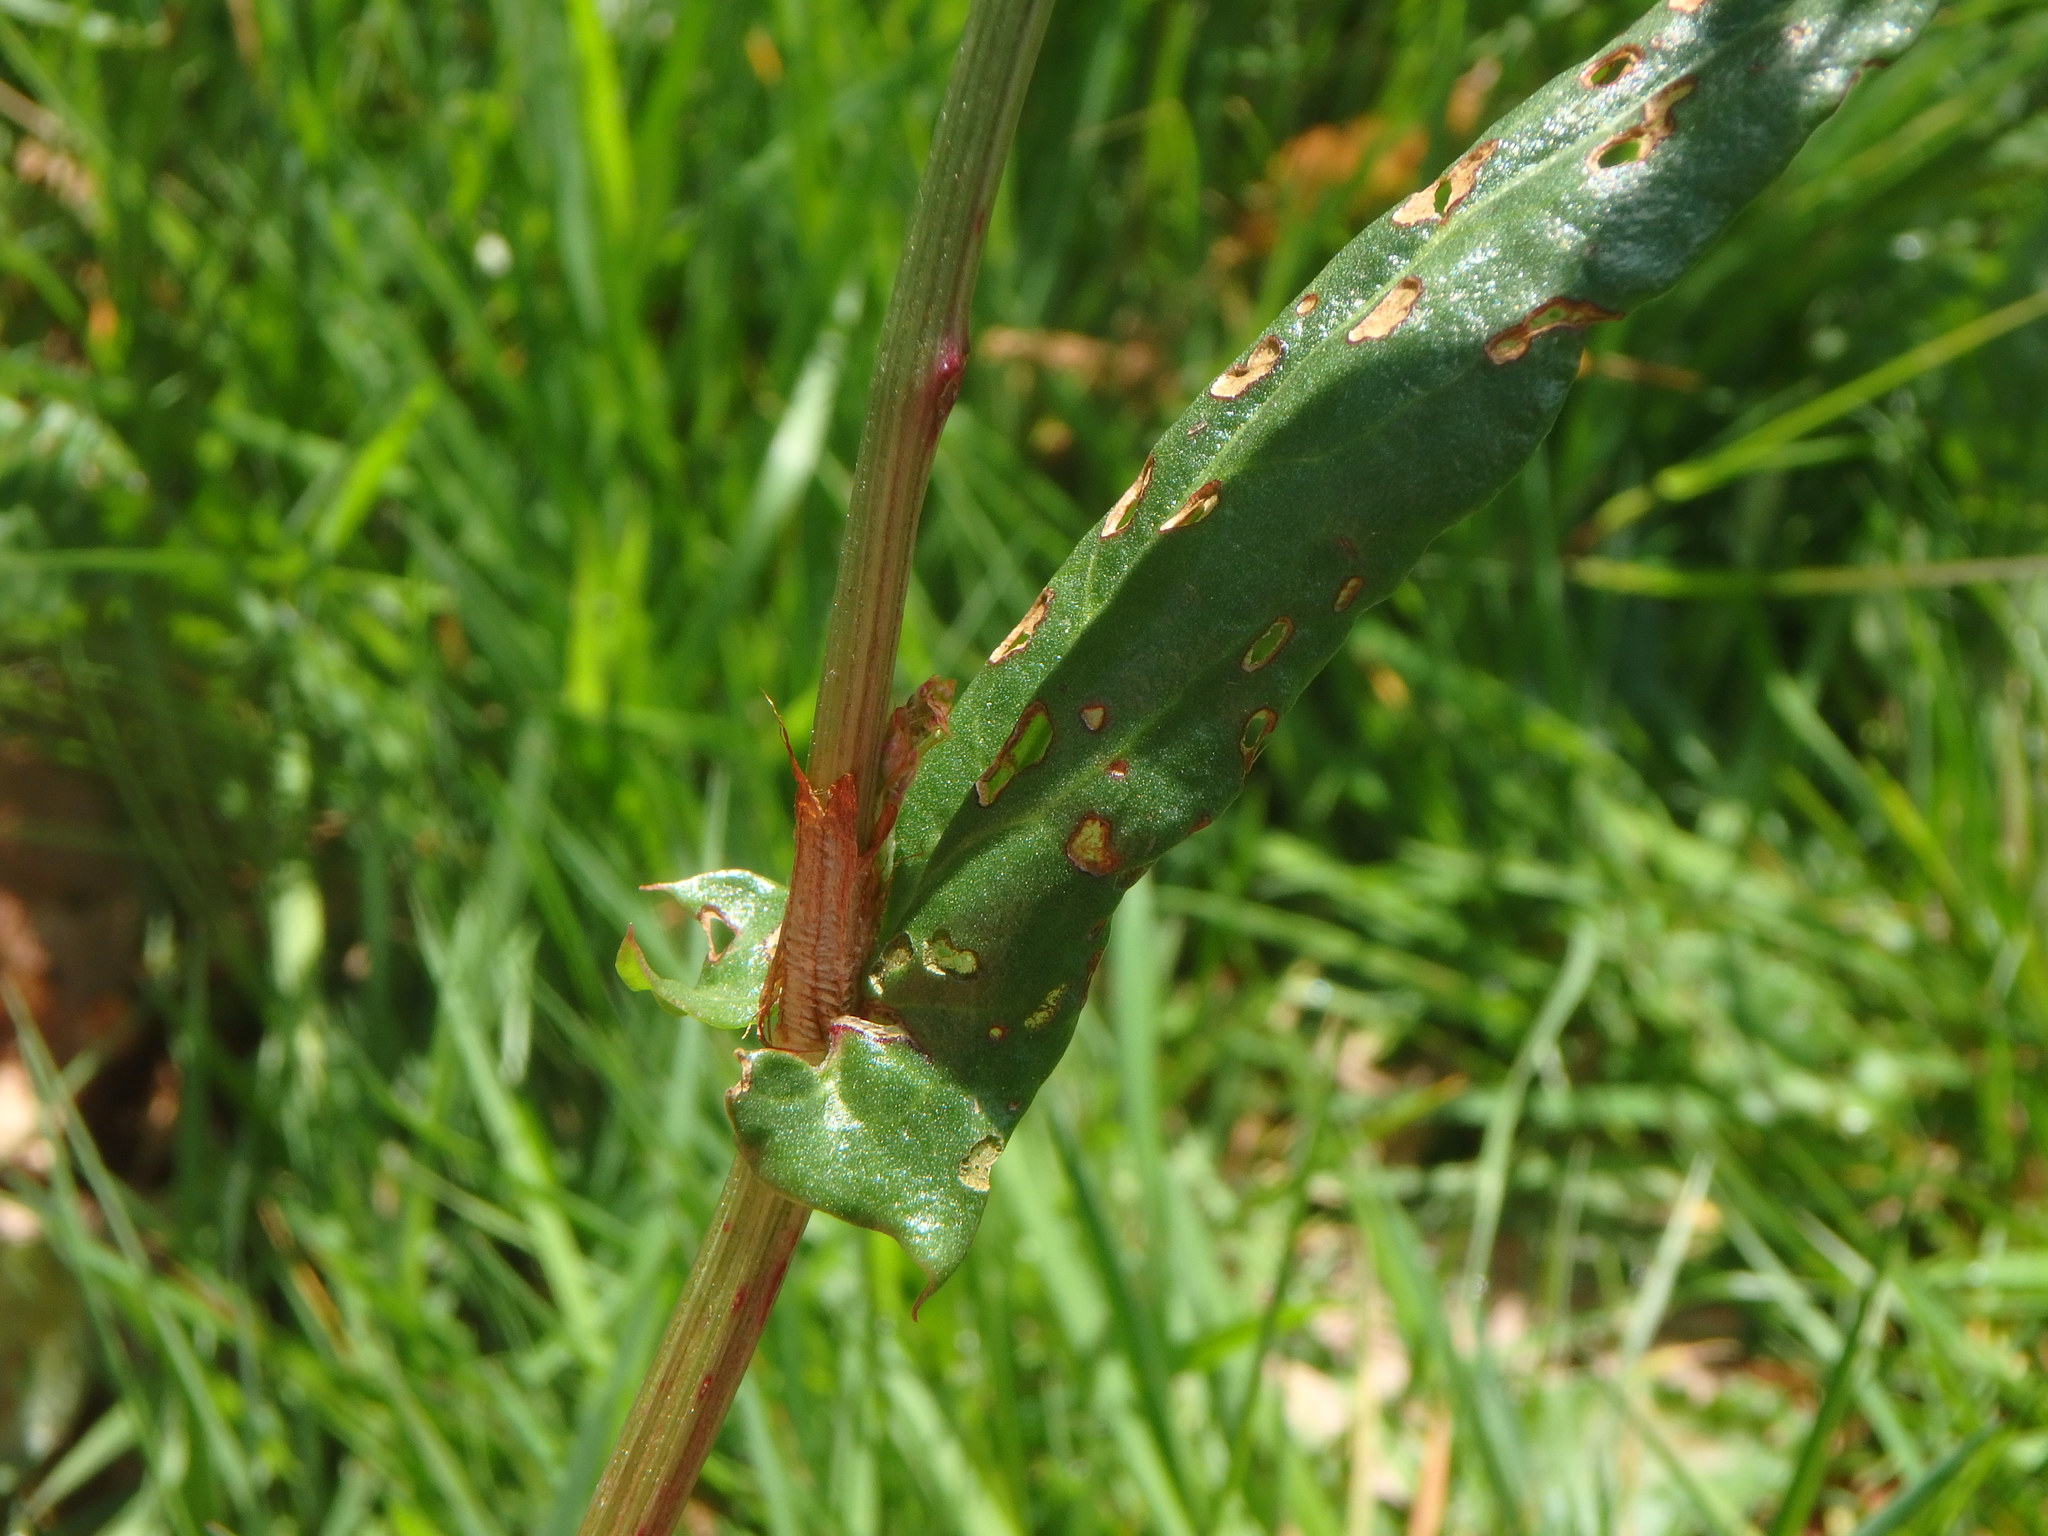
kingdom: Plantae
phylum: Tracheophyta
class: Magnoliopsida
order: Caryophyllales
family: Polygonaceae
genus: Rumex
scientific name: Rumex acetosa
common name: Garden sorrel
